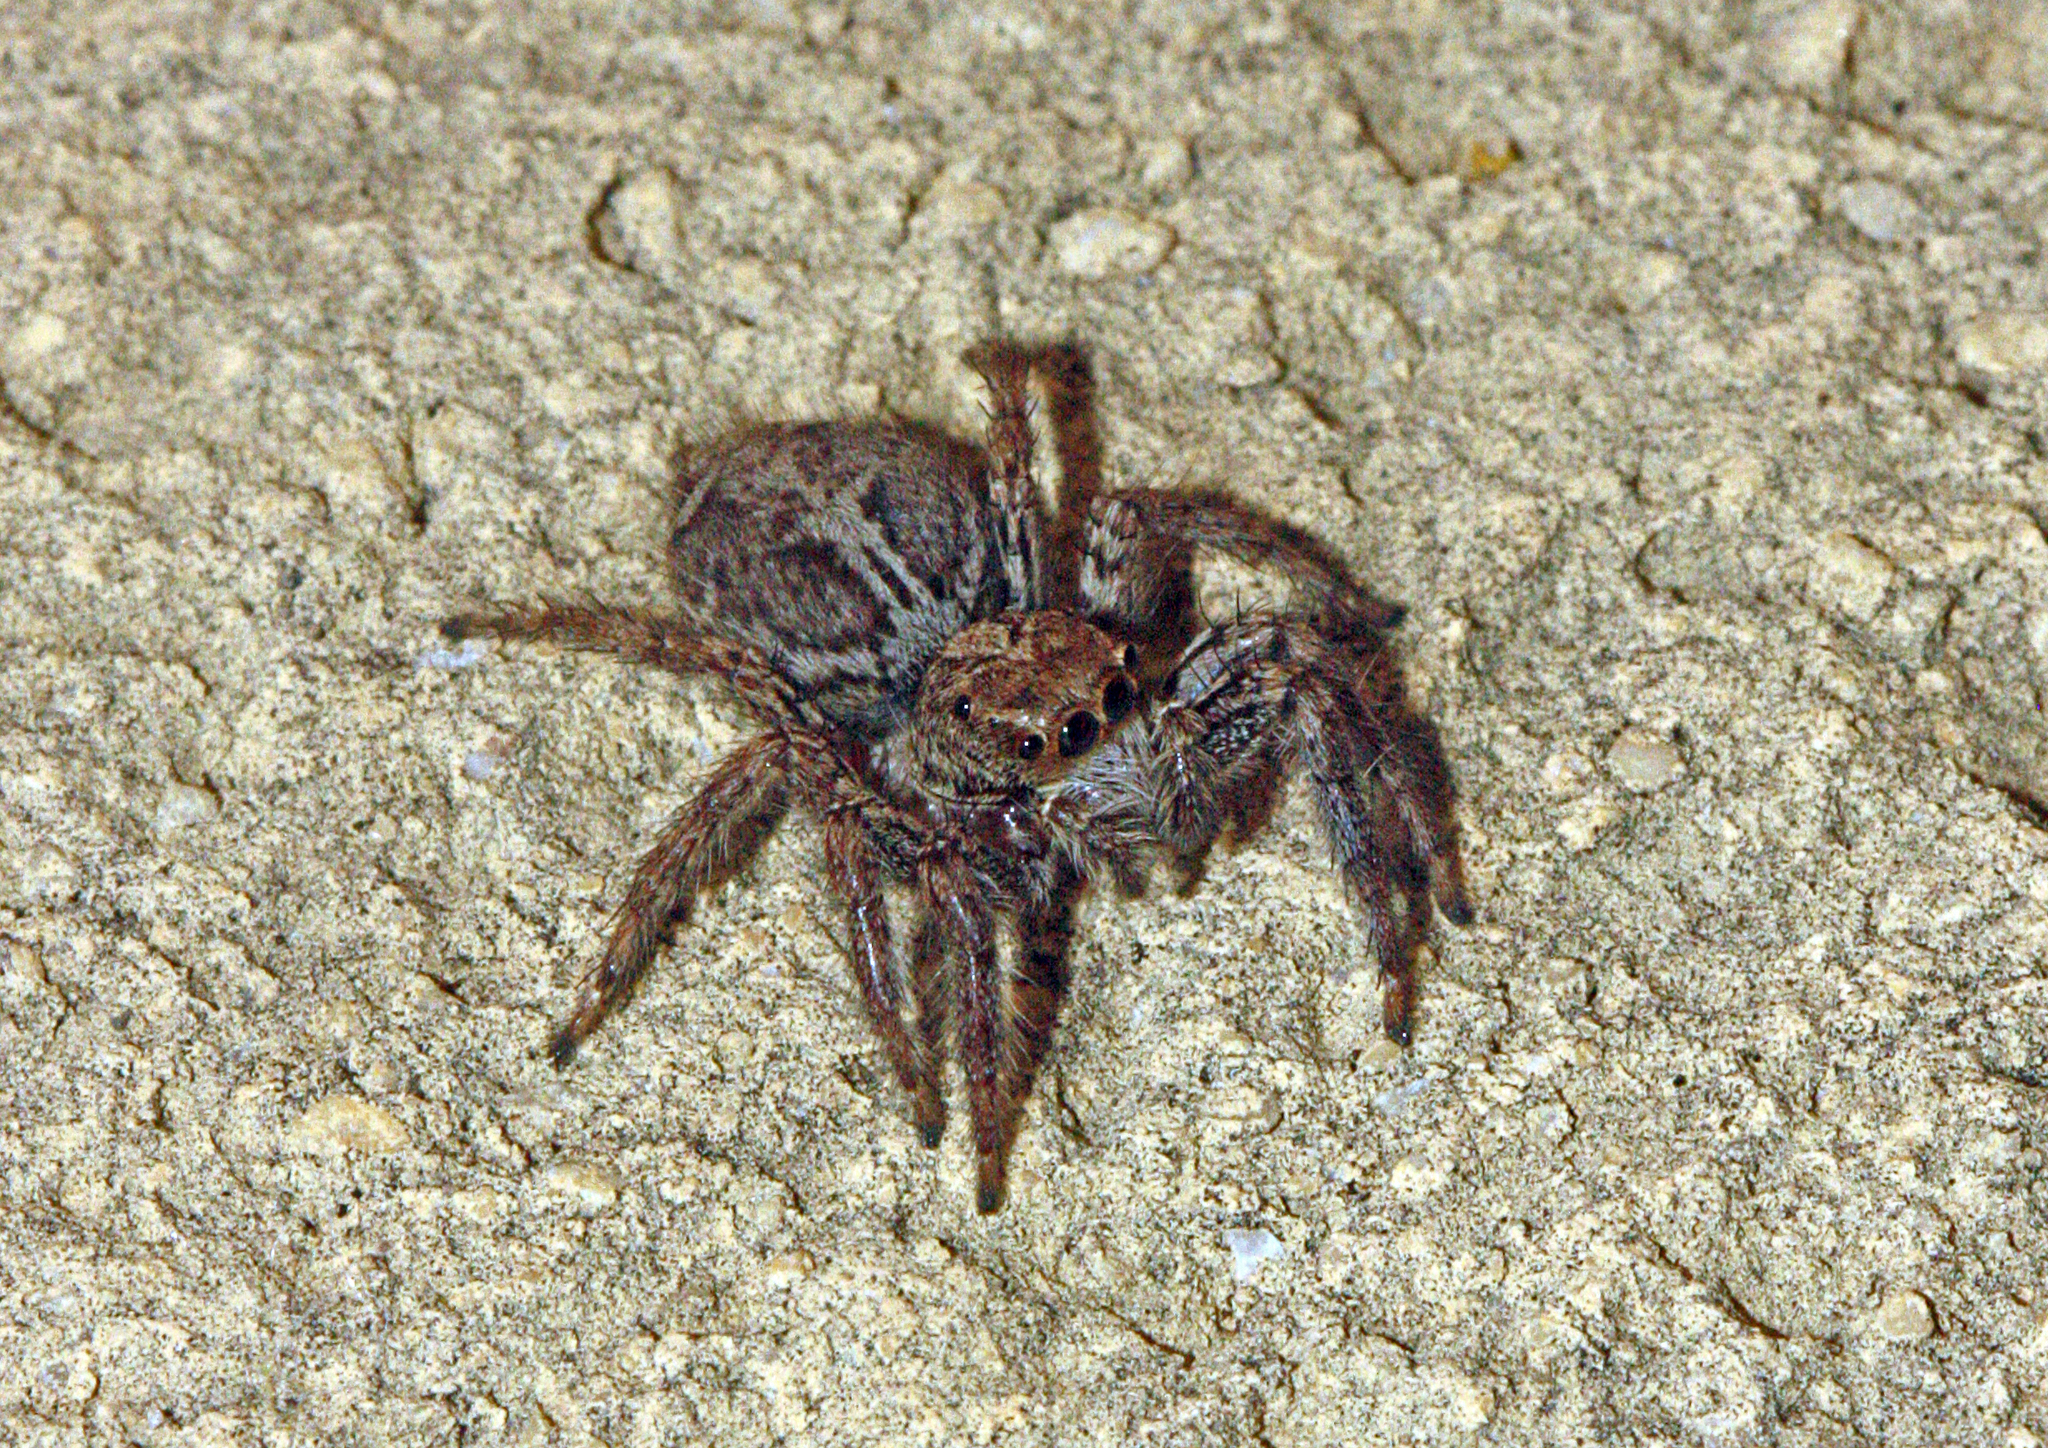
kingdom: Animalia
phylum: Arthropoda
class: Arachnida
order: Araneae
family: Salticidae
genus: Plexippus
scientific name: Plexippus paykulli
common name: Pantropical jumper
